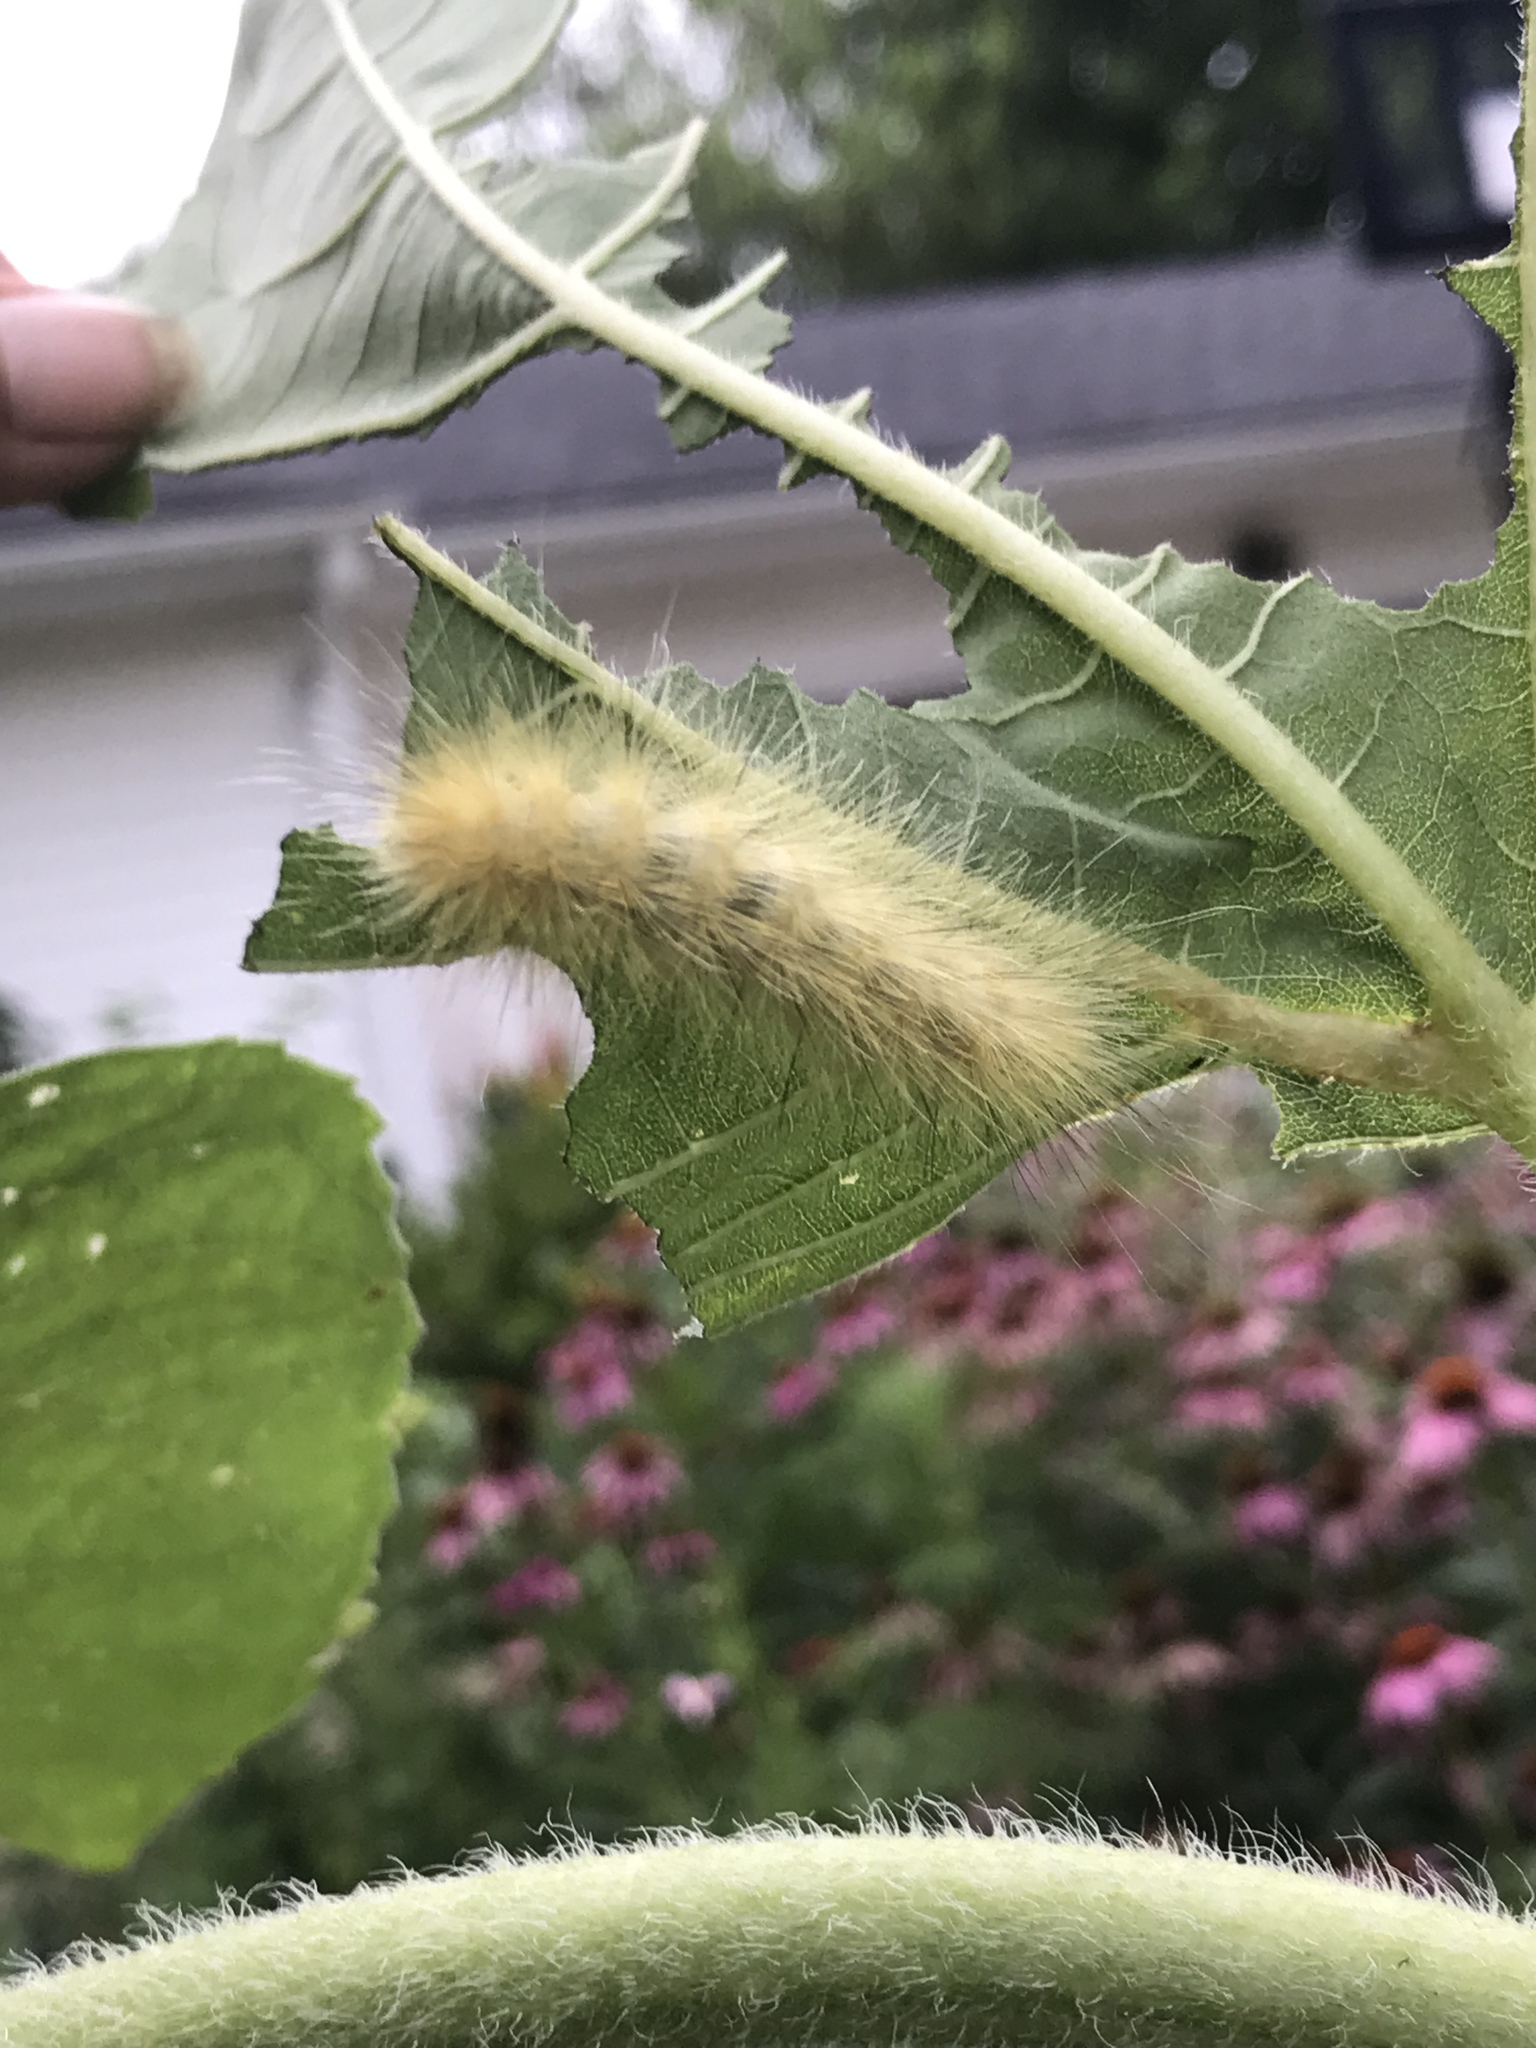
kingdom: Animalia
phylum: Arthropoda
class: Insecta
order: Lepidoptera
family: Erebidae
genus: Spilosoma
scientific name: Spilosoma virginica
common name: Virginia tiger moth
